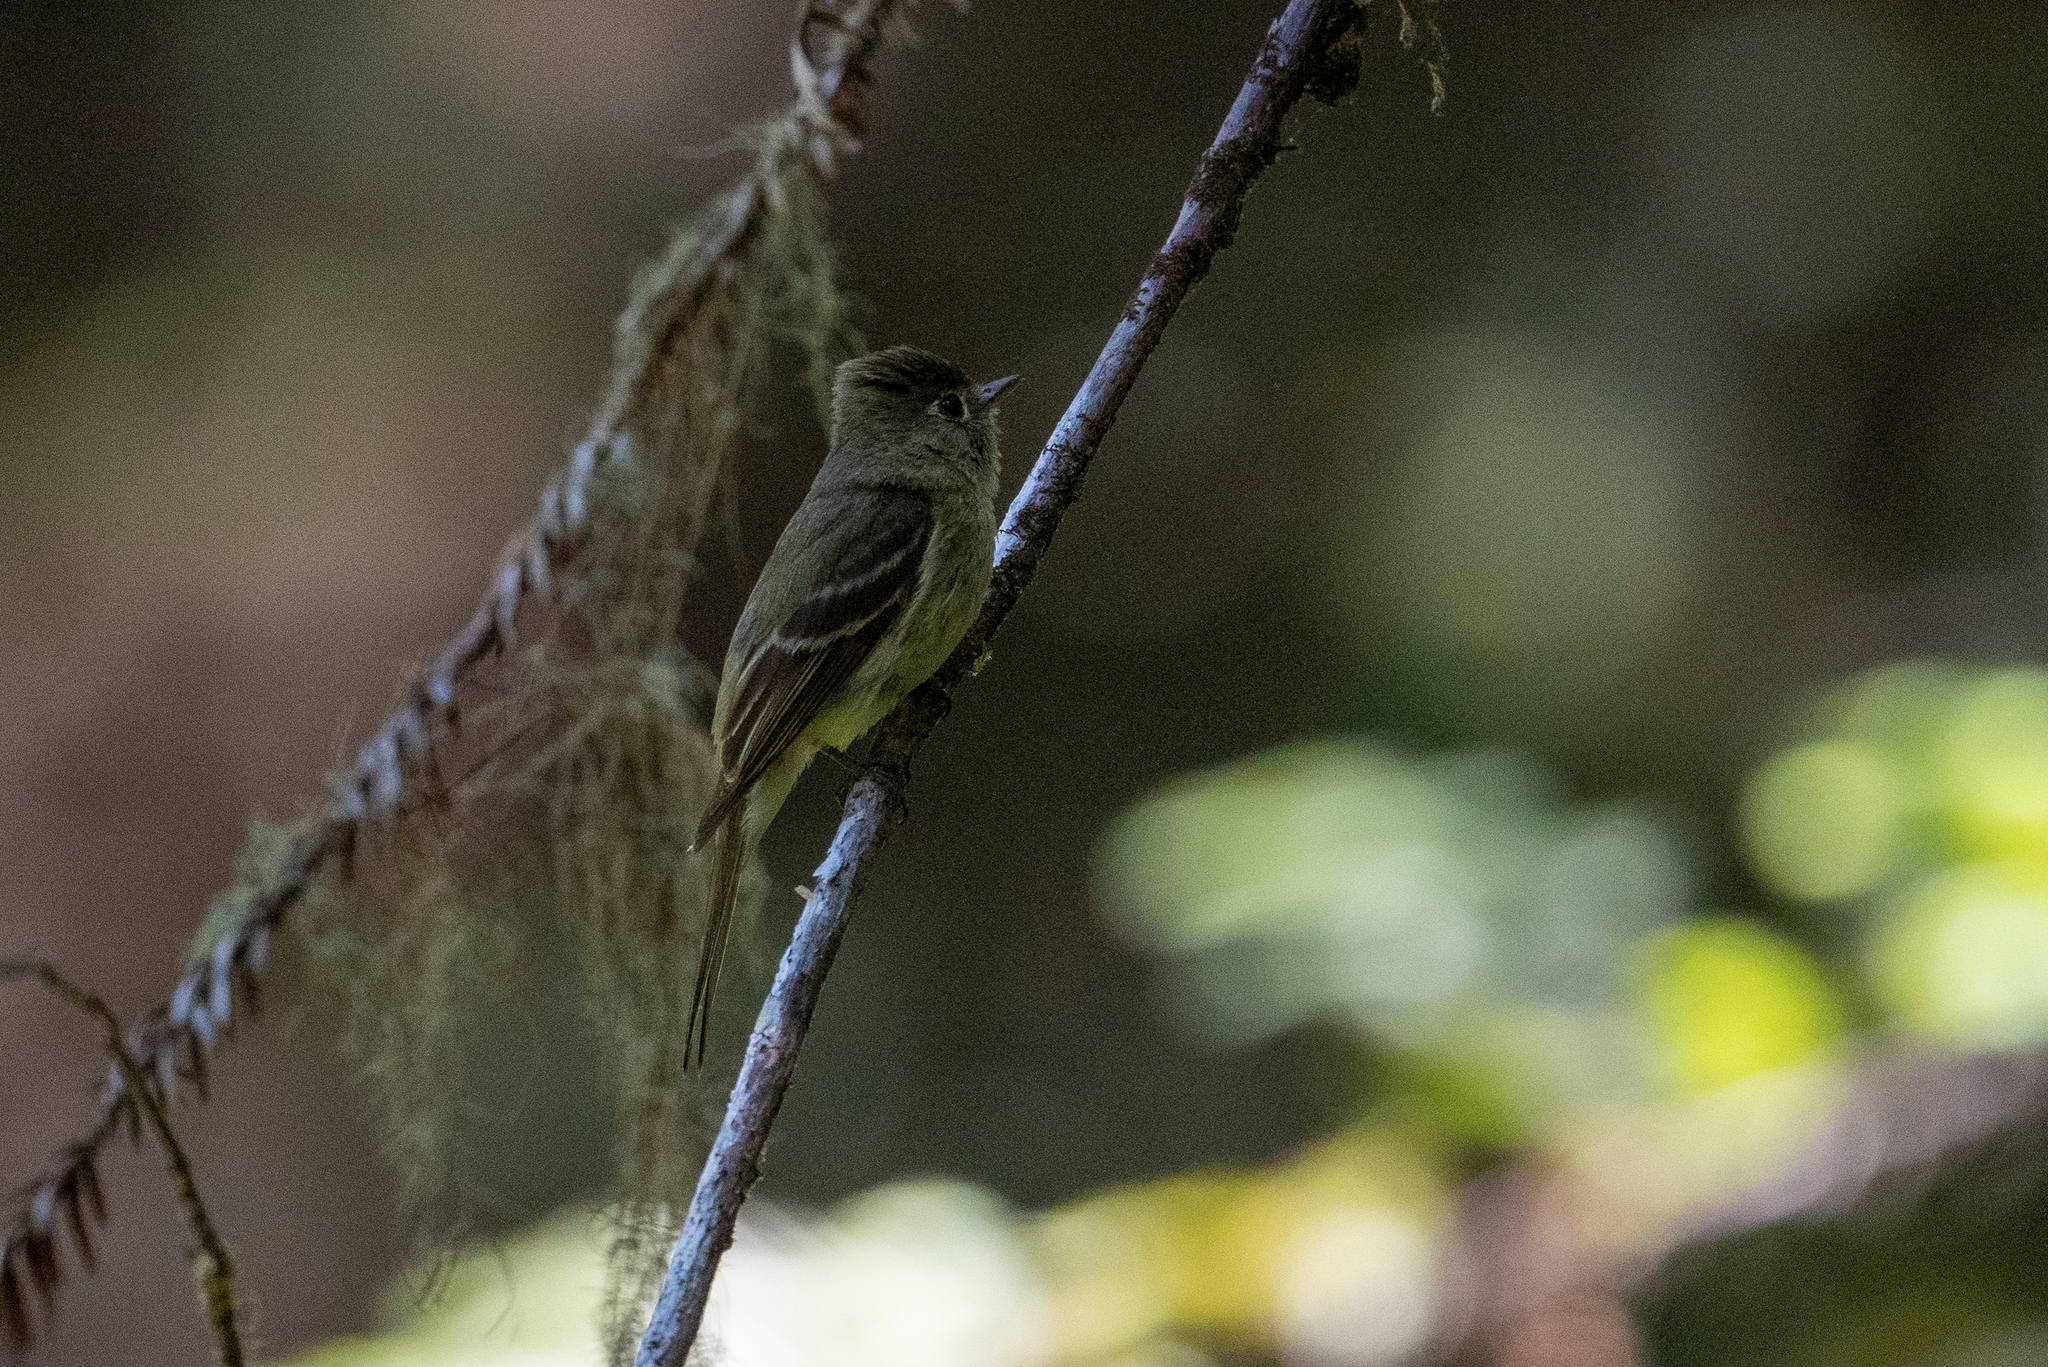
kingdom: Animalia
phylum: Chordata
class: Aves
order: Passeriformes
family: Tyrannidae
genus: Empidonax
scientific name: Empidonax difficilis
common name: Pacific-slope flycatcher
